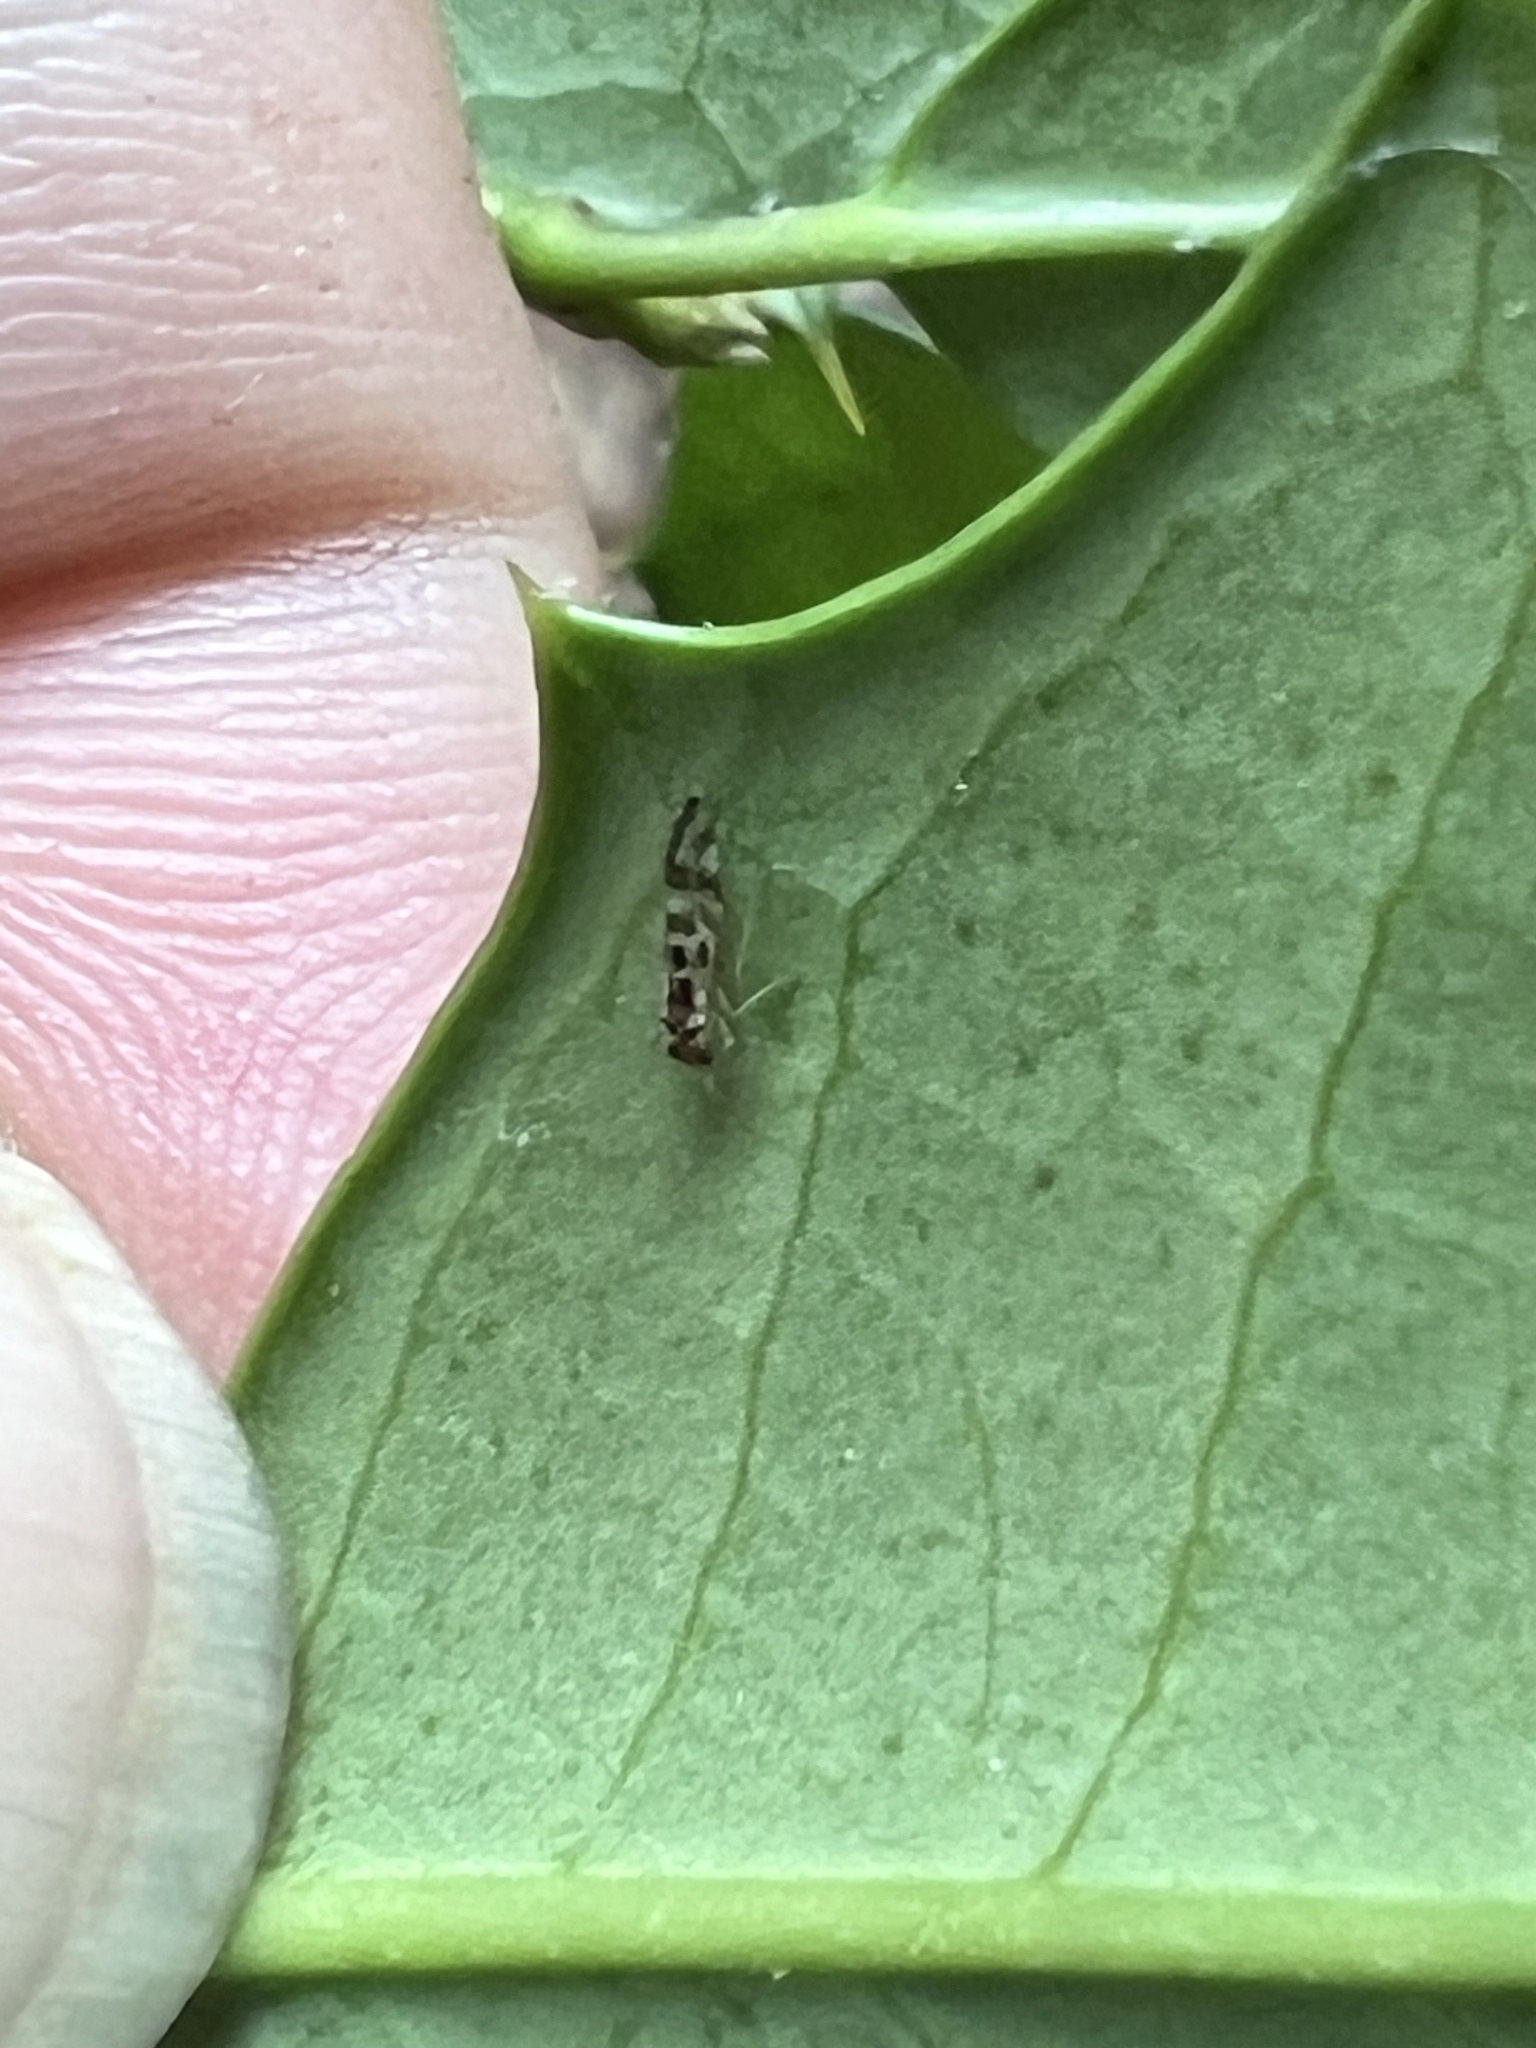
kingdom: Animalia
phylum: Arthropoda
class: Insecta
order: Psocodea
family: Stenopsocidae
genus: Graphopsocus
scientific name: Graphopsocus cruciatus
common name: Lizard bark louse
